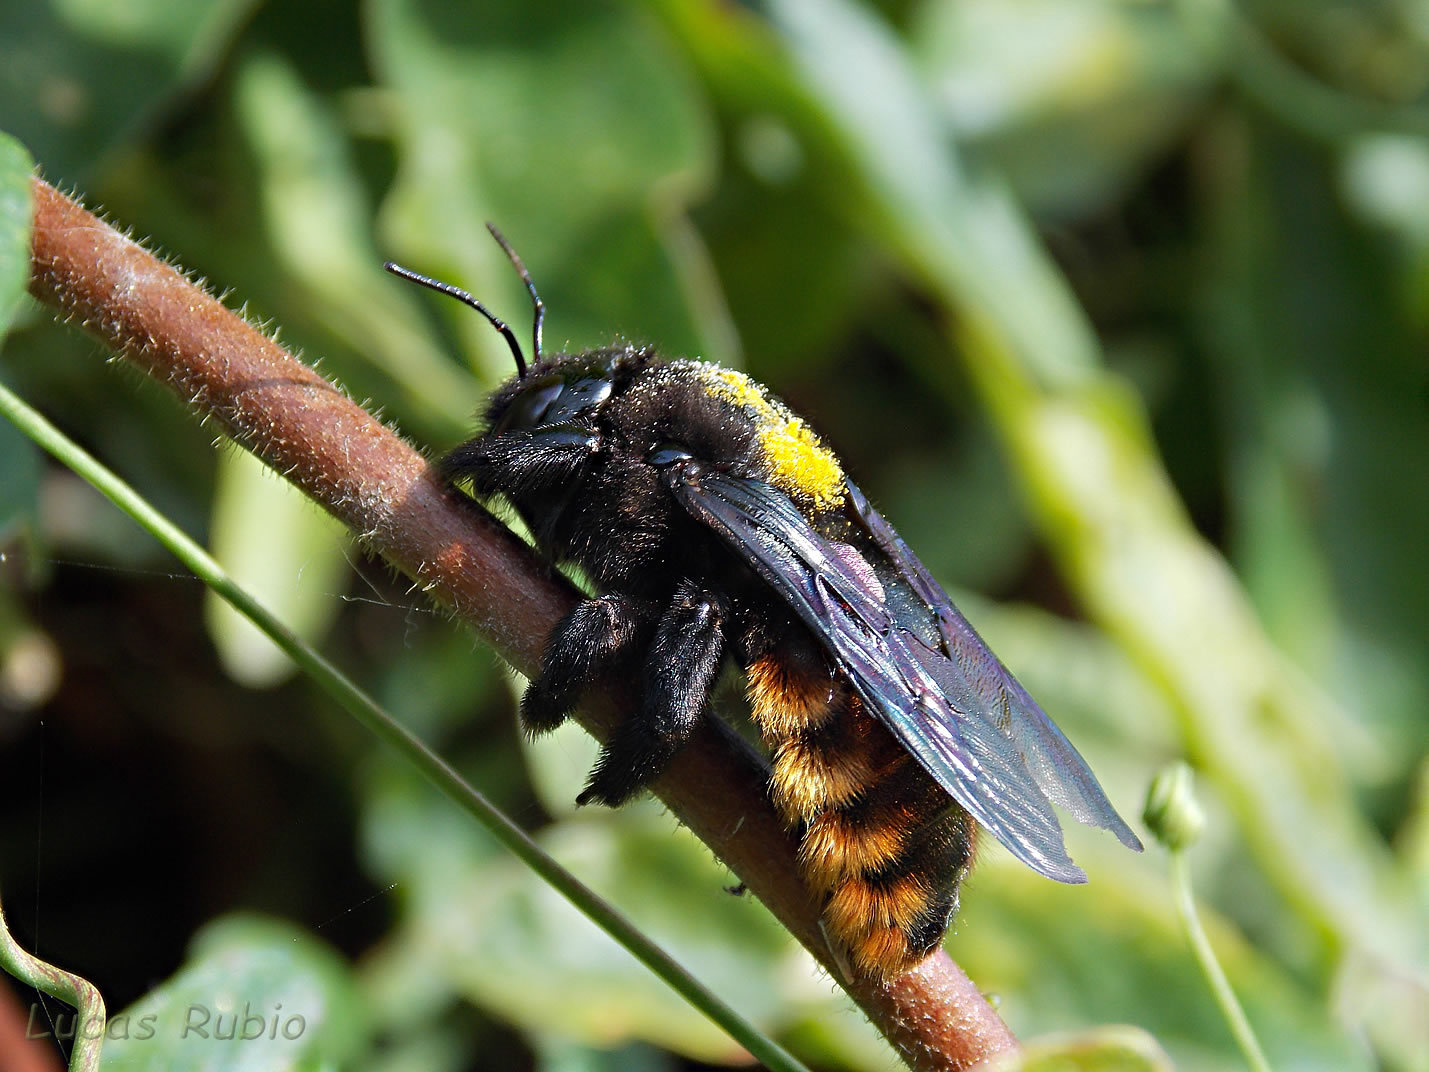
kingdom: Animalia
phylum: Arthropoda
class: Insecta
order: Hymenoptera
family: Apidae
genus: Xylocopa
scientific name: Xylocopa augusti
